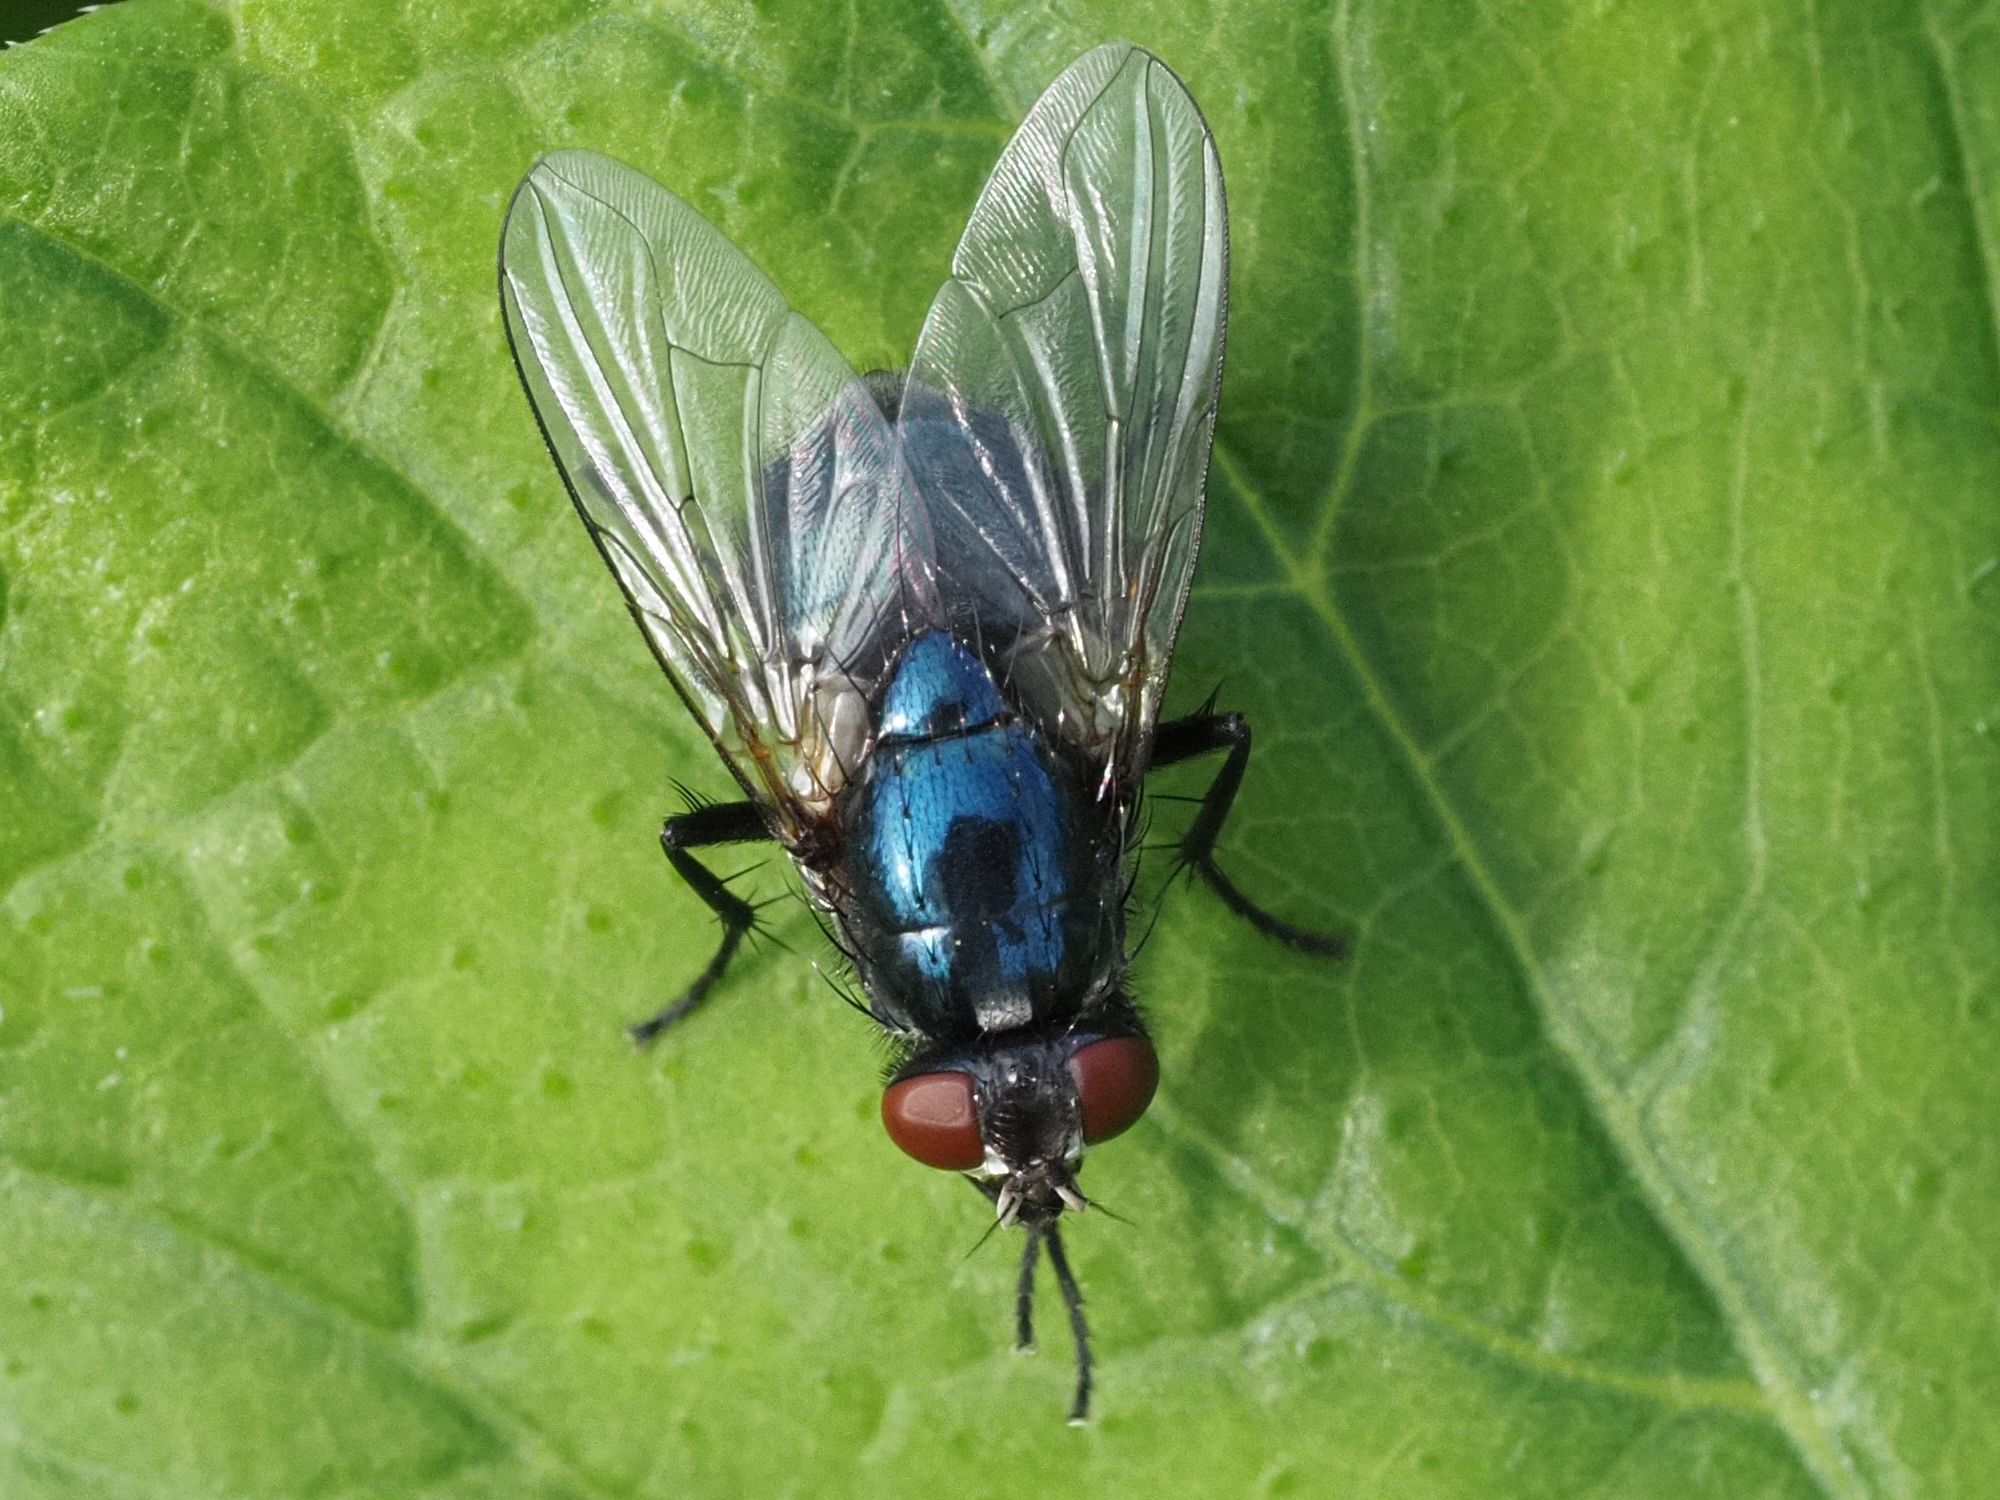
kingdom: Animalia
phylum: Arthropoda
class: Insecta
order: Diptera
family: Muscidae
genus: Eudasyphora
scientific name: Eudasyphora cyanicolor
